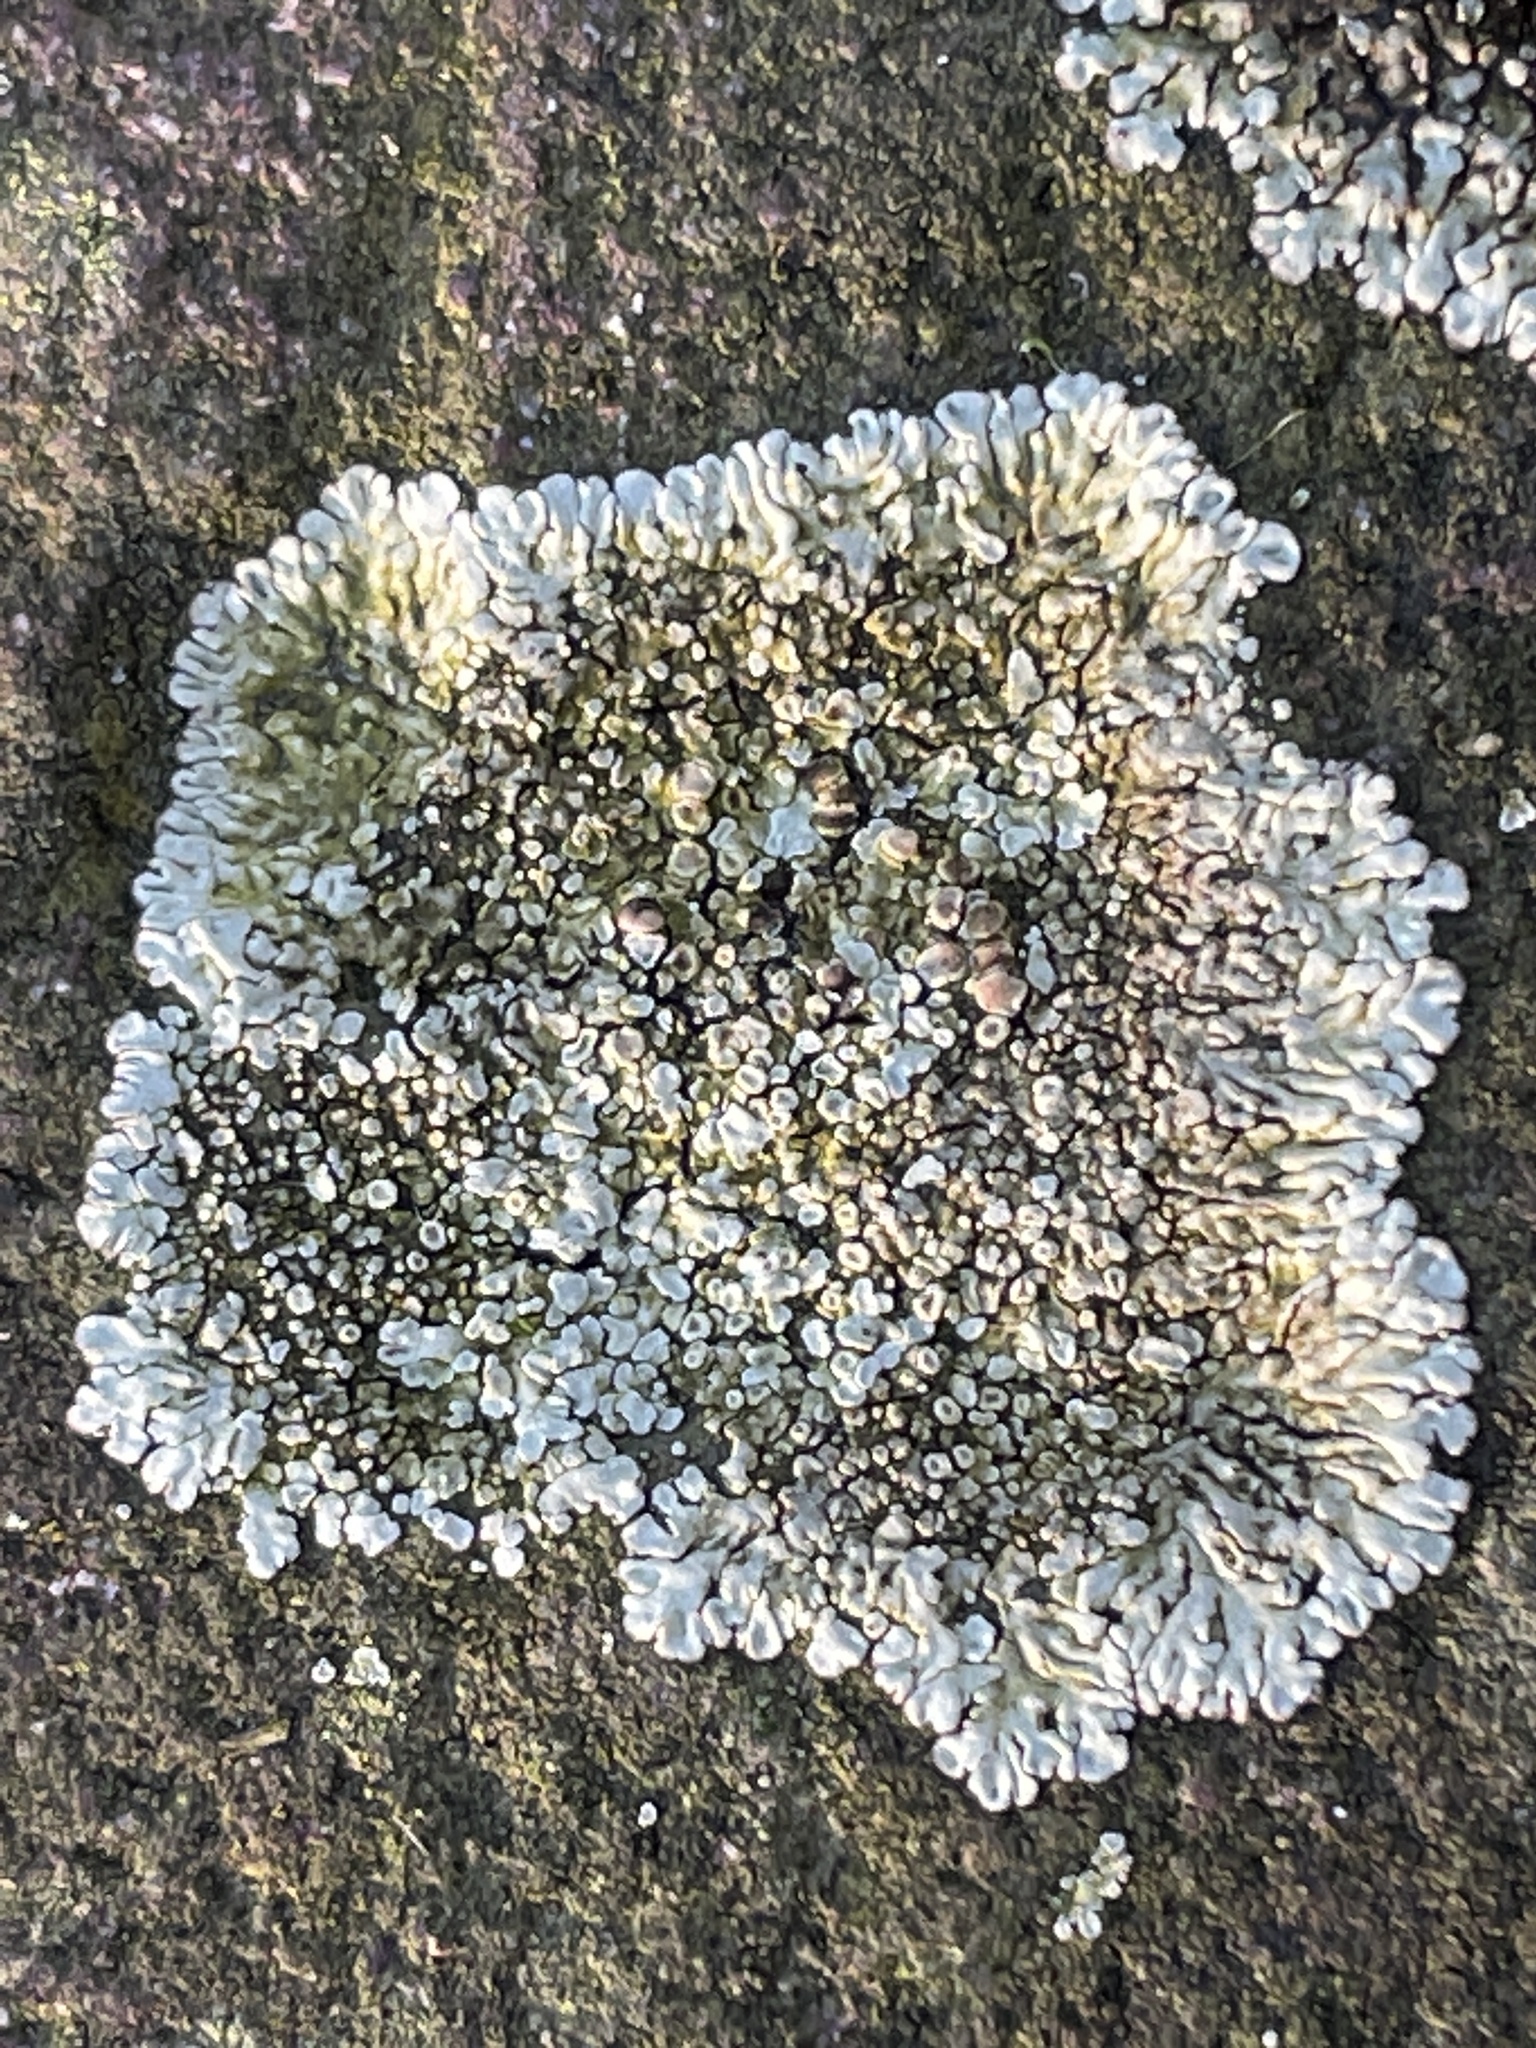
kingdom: Fungi
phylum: Ascomycota
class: Lecanoromycetes
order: Lecanorales
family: Lecanoraceae
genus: Protoparmeliopsis
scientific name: Protoparmeliopsis muralis
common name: Stonewall rim lichen
